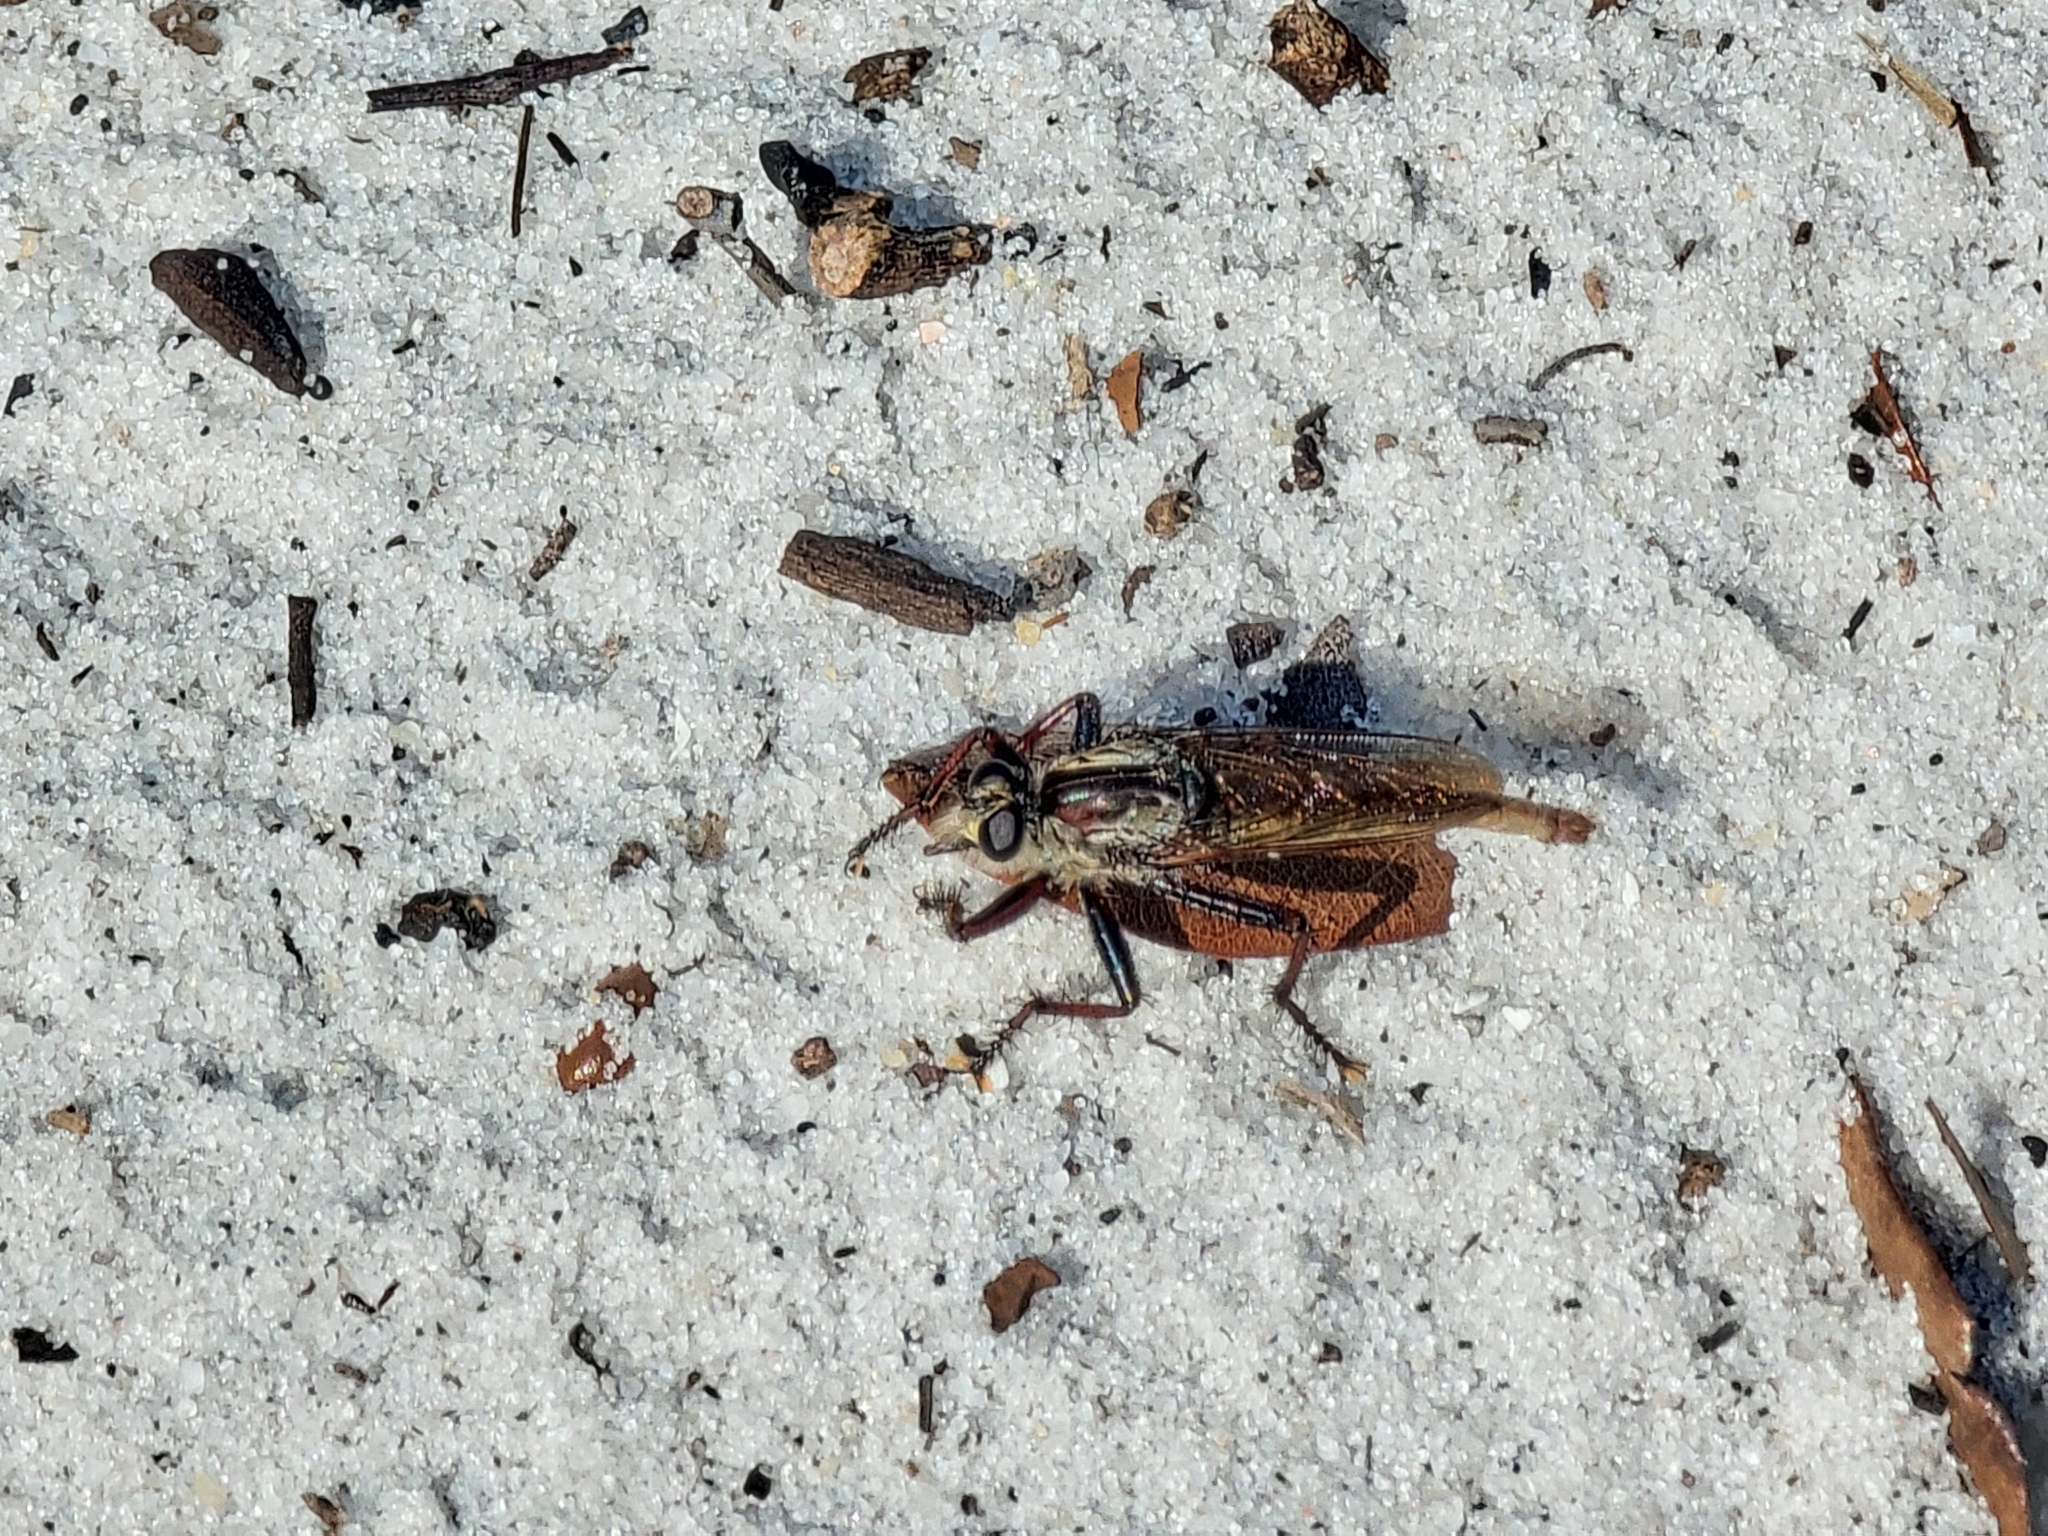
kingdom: Animalia
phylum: Arthropoda
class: Insecta
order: Diptera
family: Asilidae
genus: Proctacanthus
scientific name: Proctacanthus brevipennis
